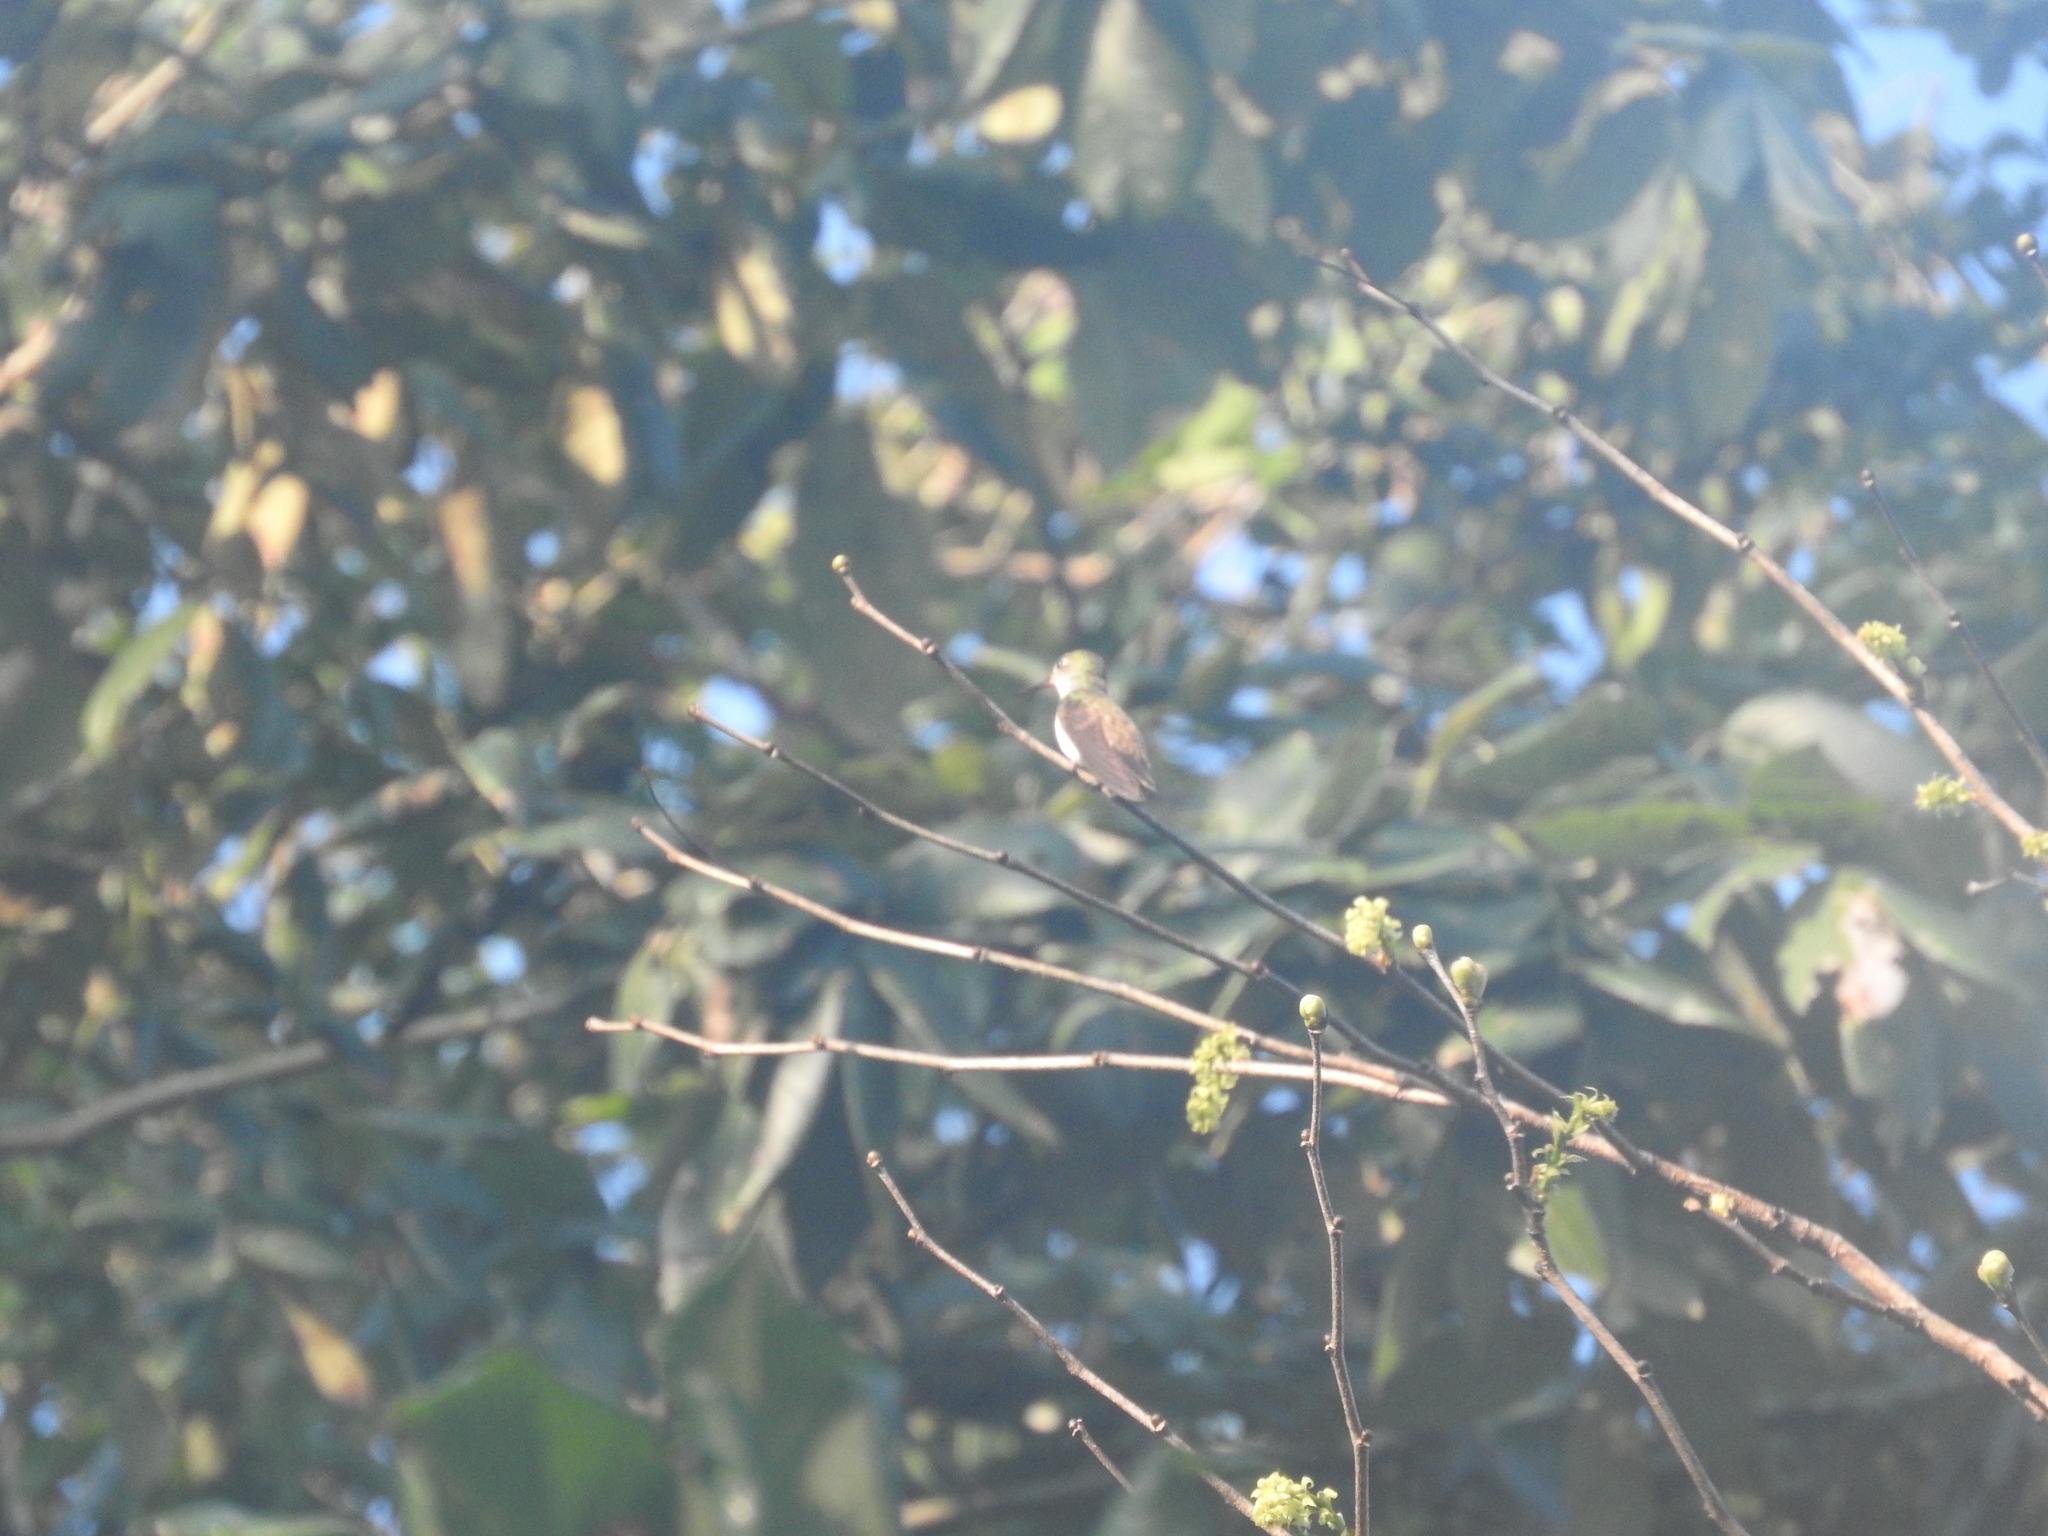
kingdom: Animalia
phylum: Chordata
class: Aves
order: Apodiformes
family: Trochilidae
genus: Chlorestes
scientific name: Chlorestes candida
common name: White-bellied emerald
